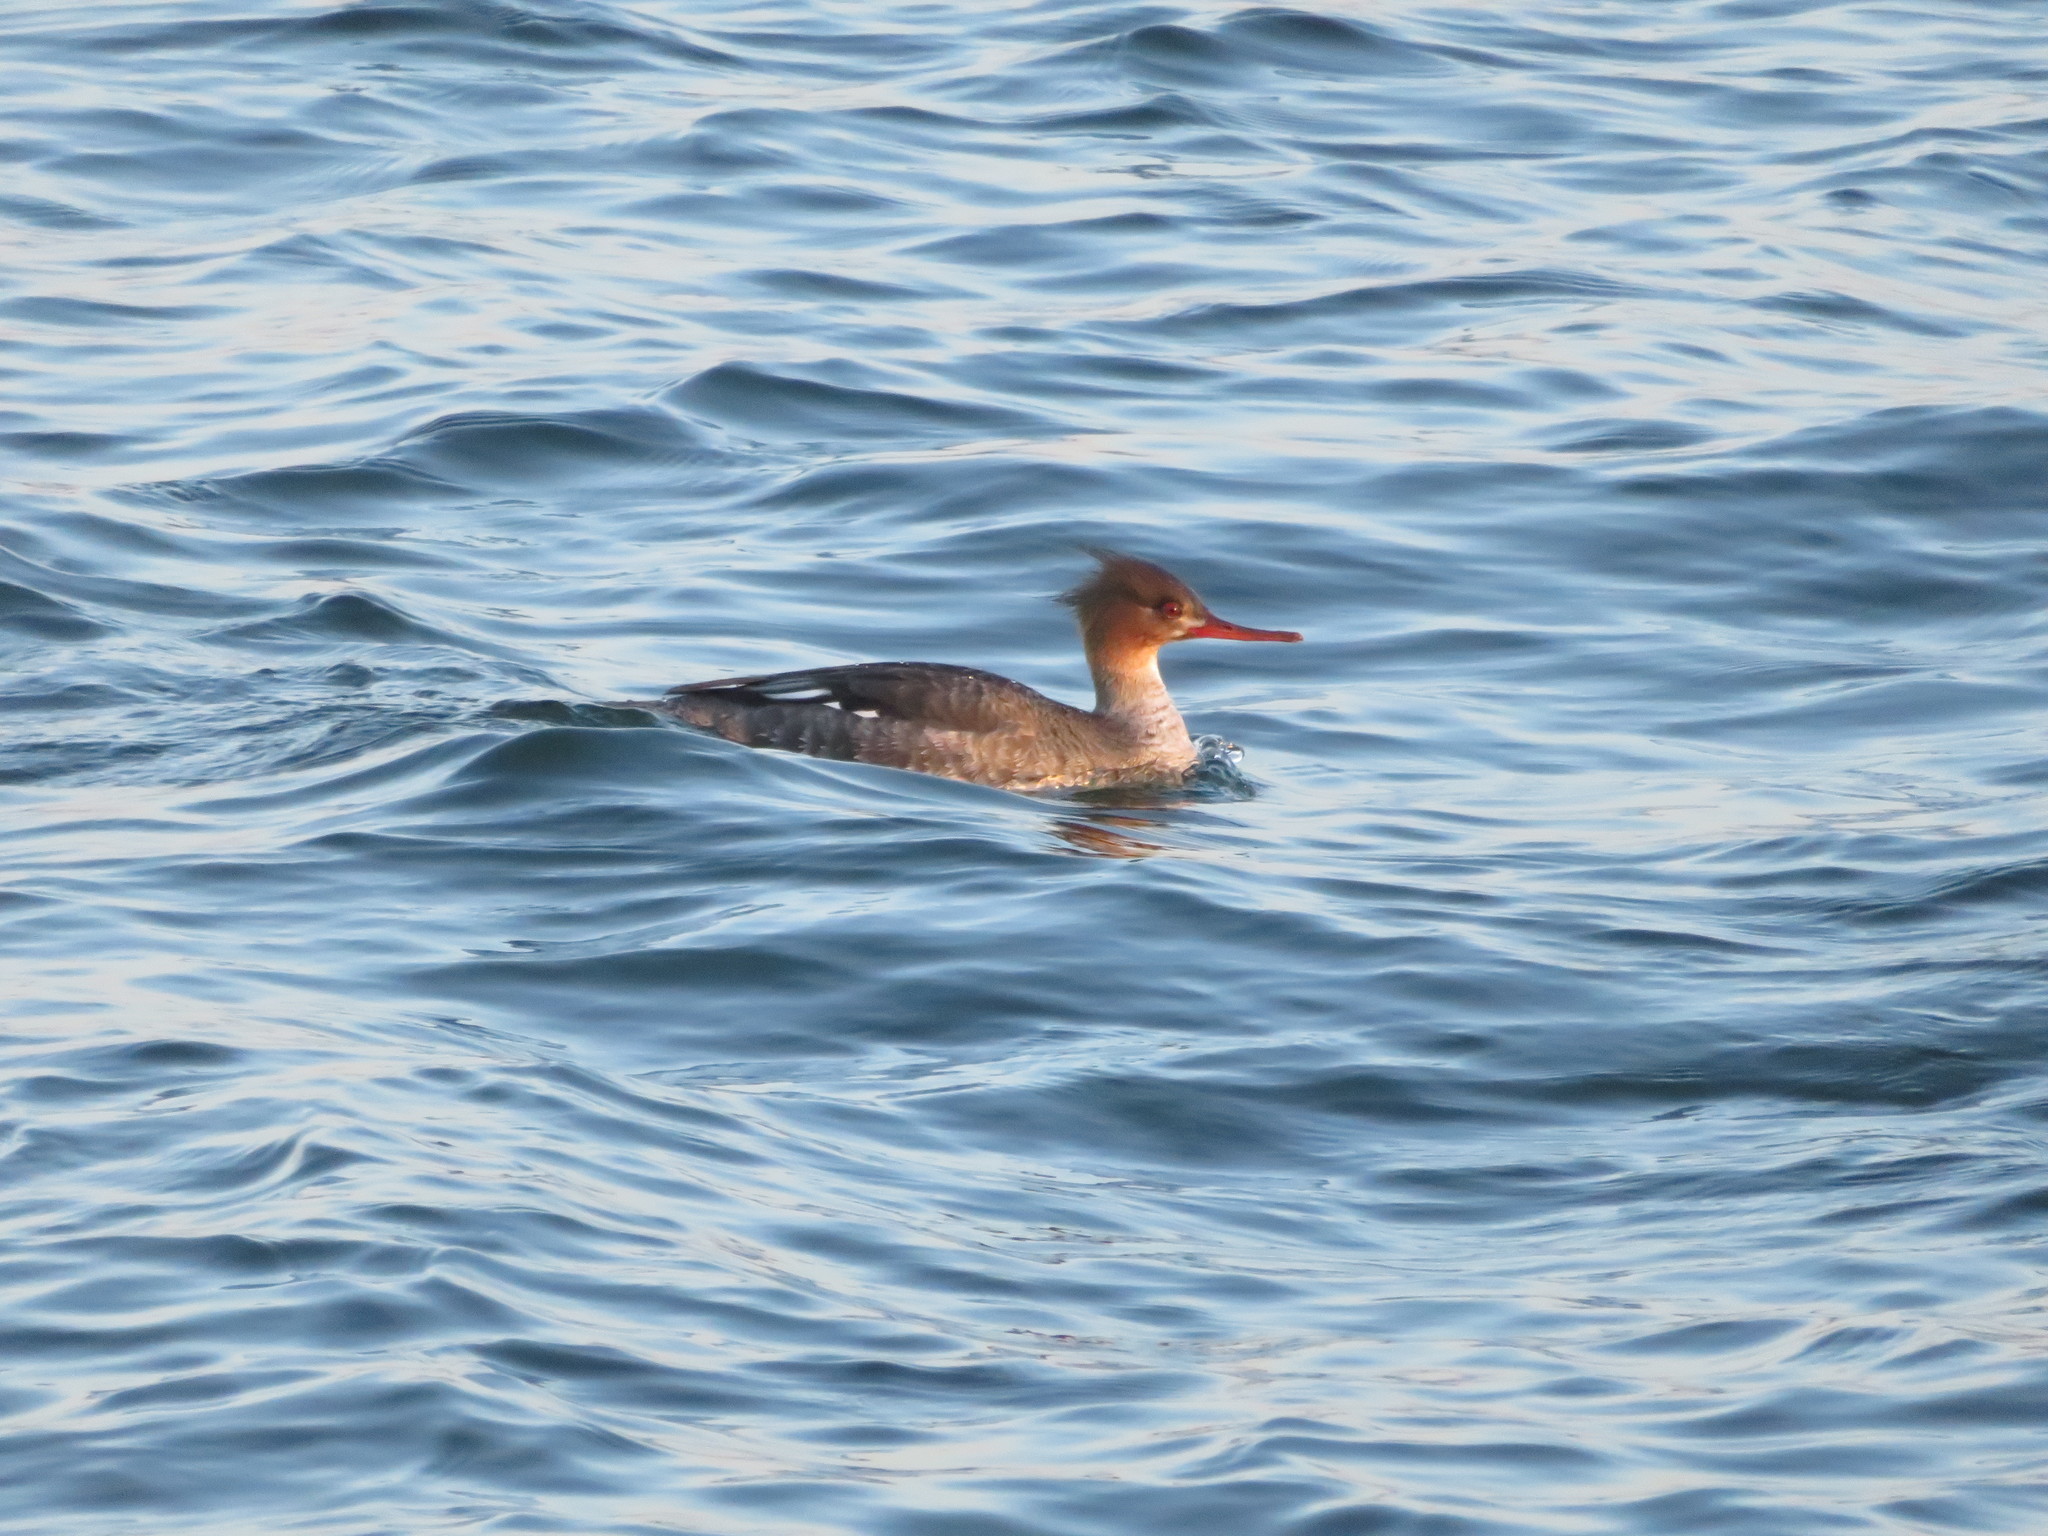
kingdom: Animalia
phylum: Chordata
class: Aves
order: Anseriformes
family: Anatidae
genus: Mergus
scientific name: Mergus serrator
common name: Red-breasted merganser
